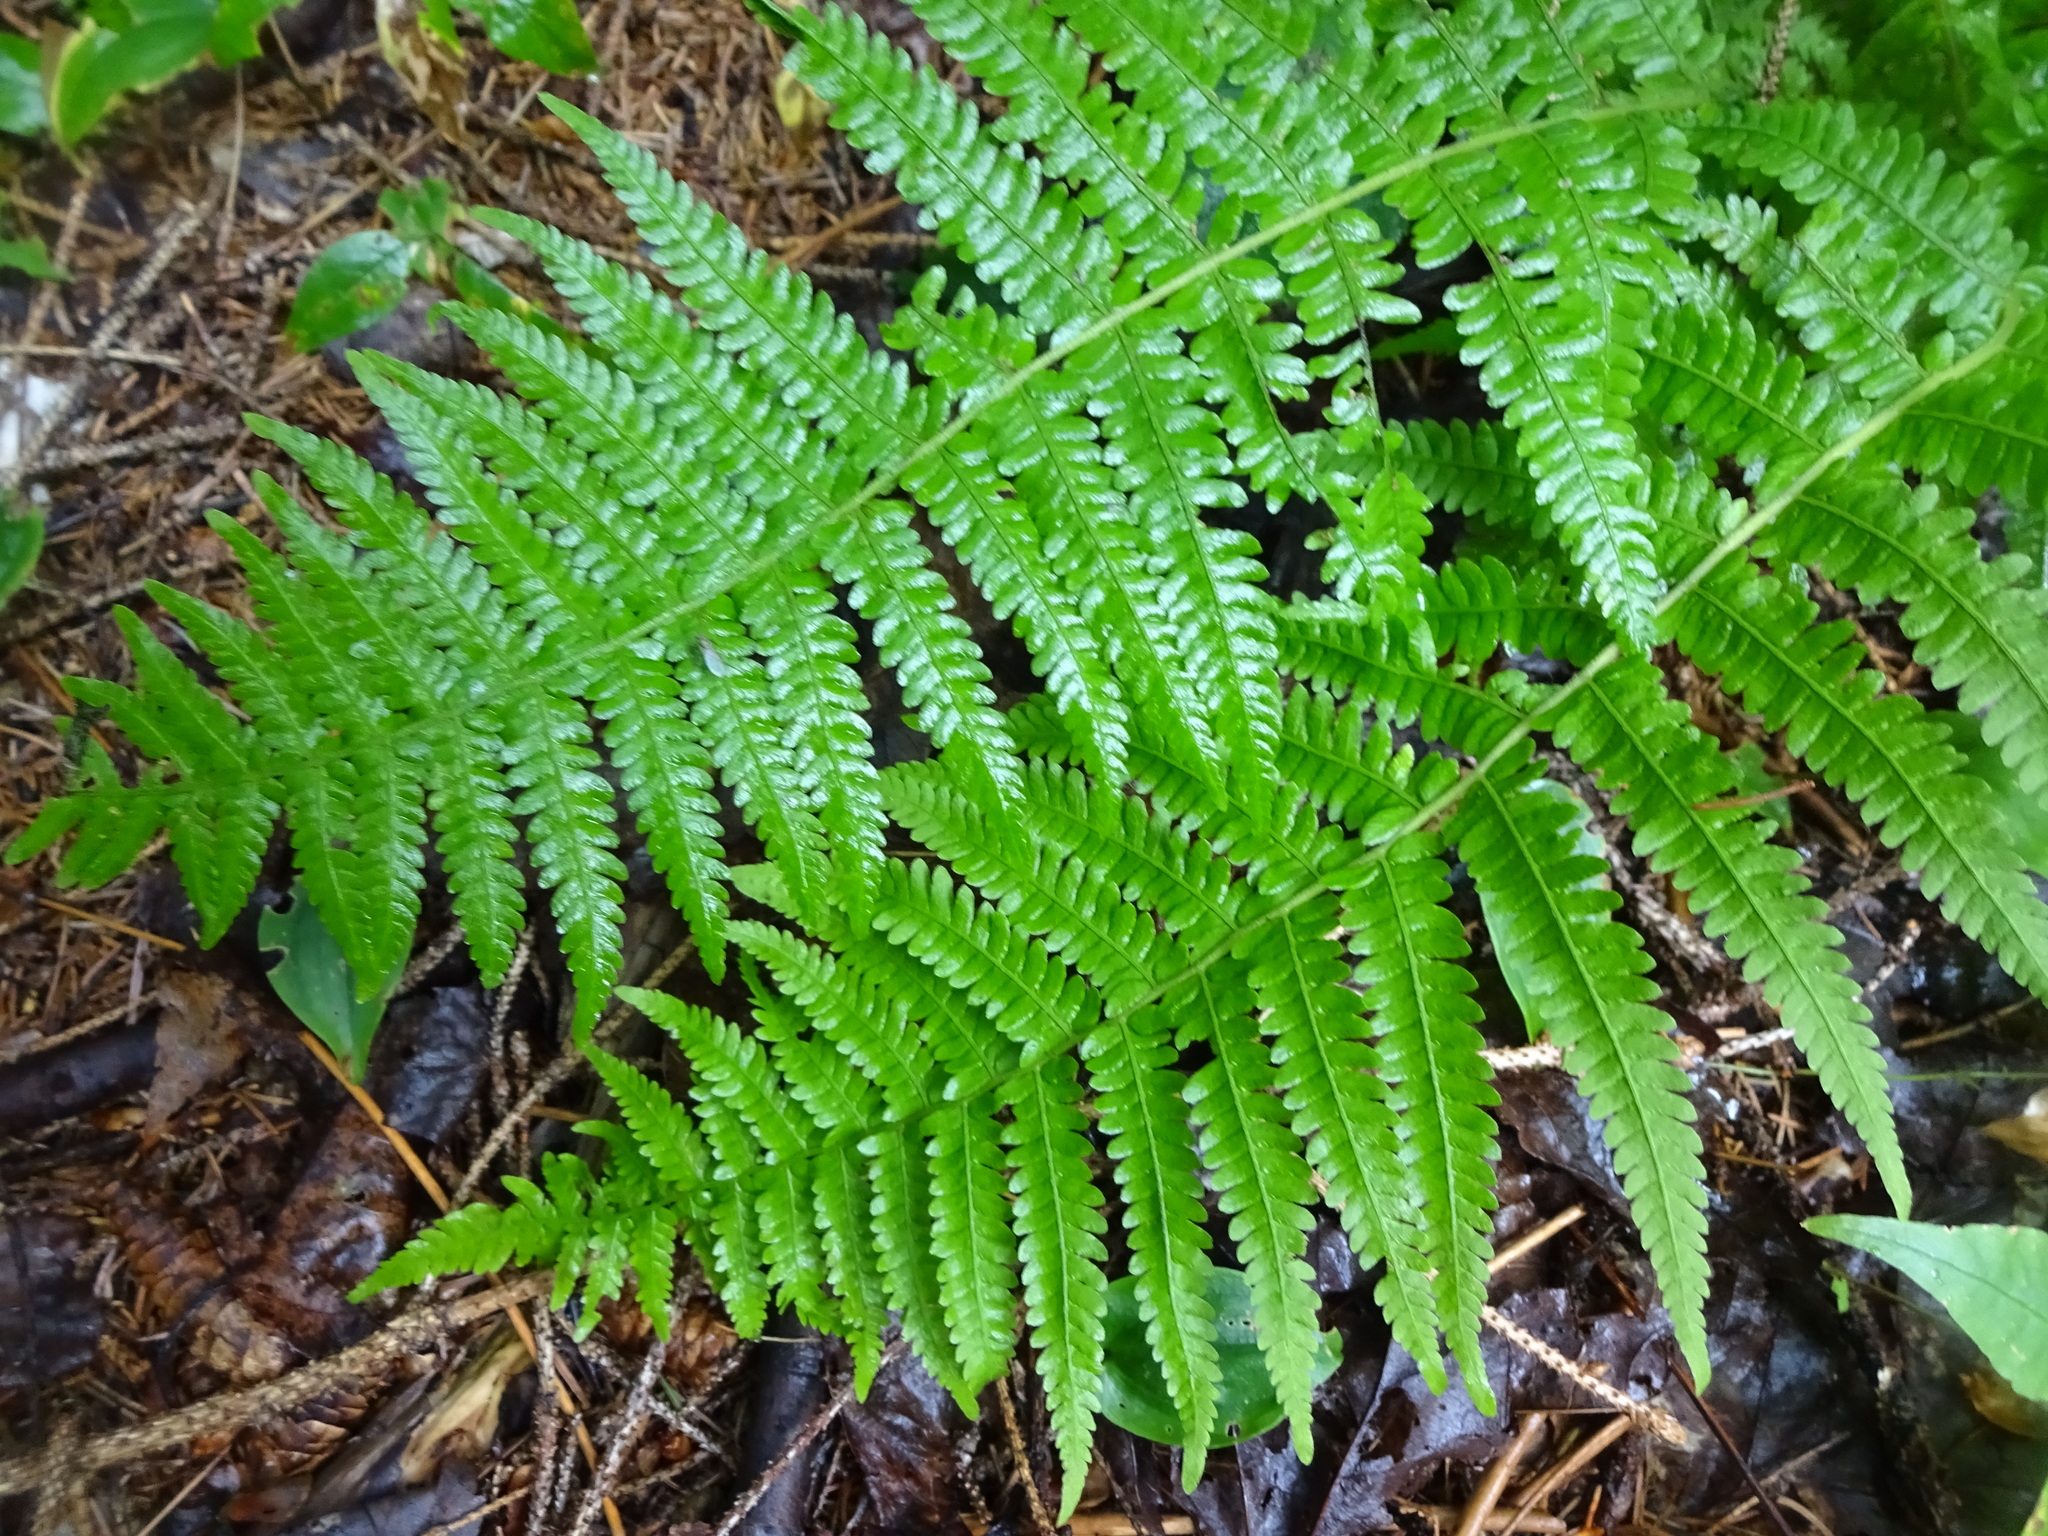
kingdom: Plantae
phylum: Tracheophyta
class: Polypodiopsida
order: Polypodiales
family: Thelypteridaceae
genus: Amauropelta
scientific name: Amauropelta noveboracensis
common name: New york fern
